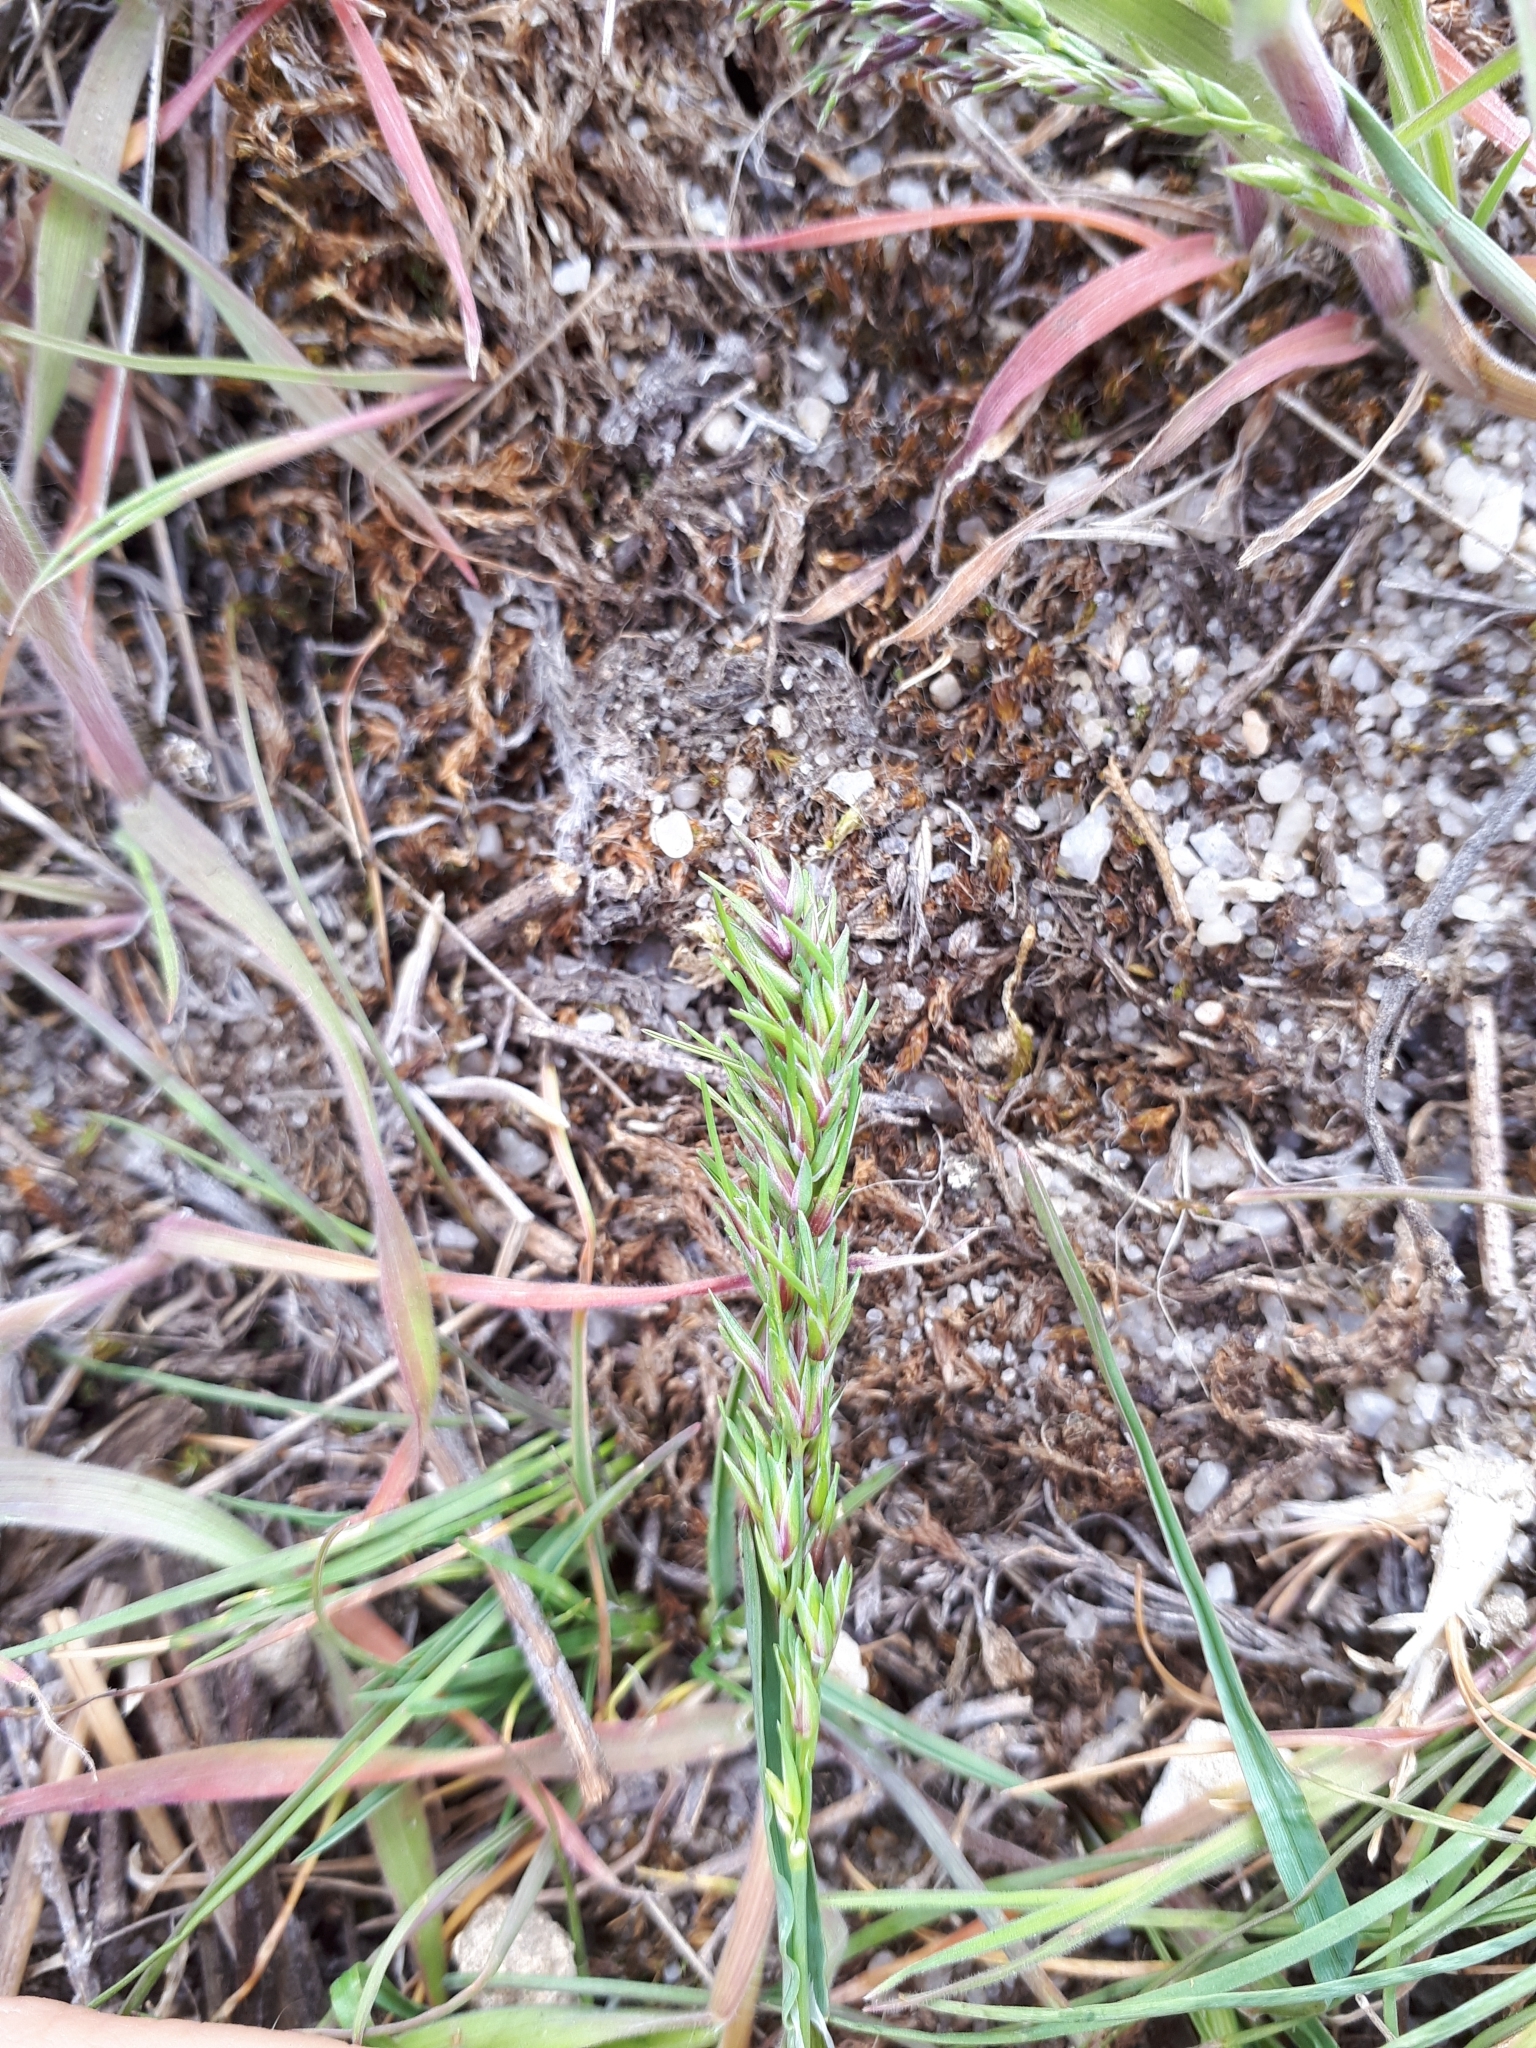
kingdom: Plantae
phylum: Tracheophyta
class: Liliopsida
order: Poales
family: Poaceae
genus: Poa
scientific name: Poa bulbosa
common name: Bulbous bluegrass
